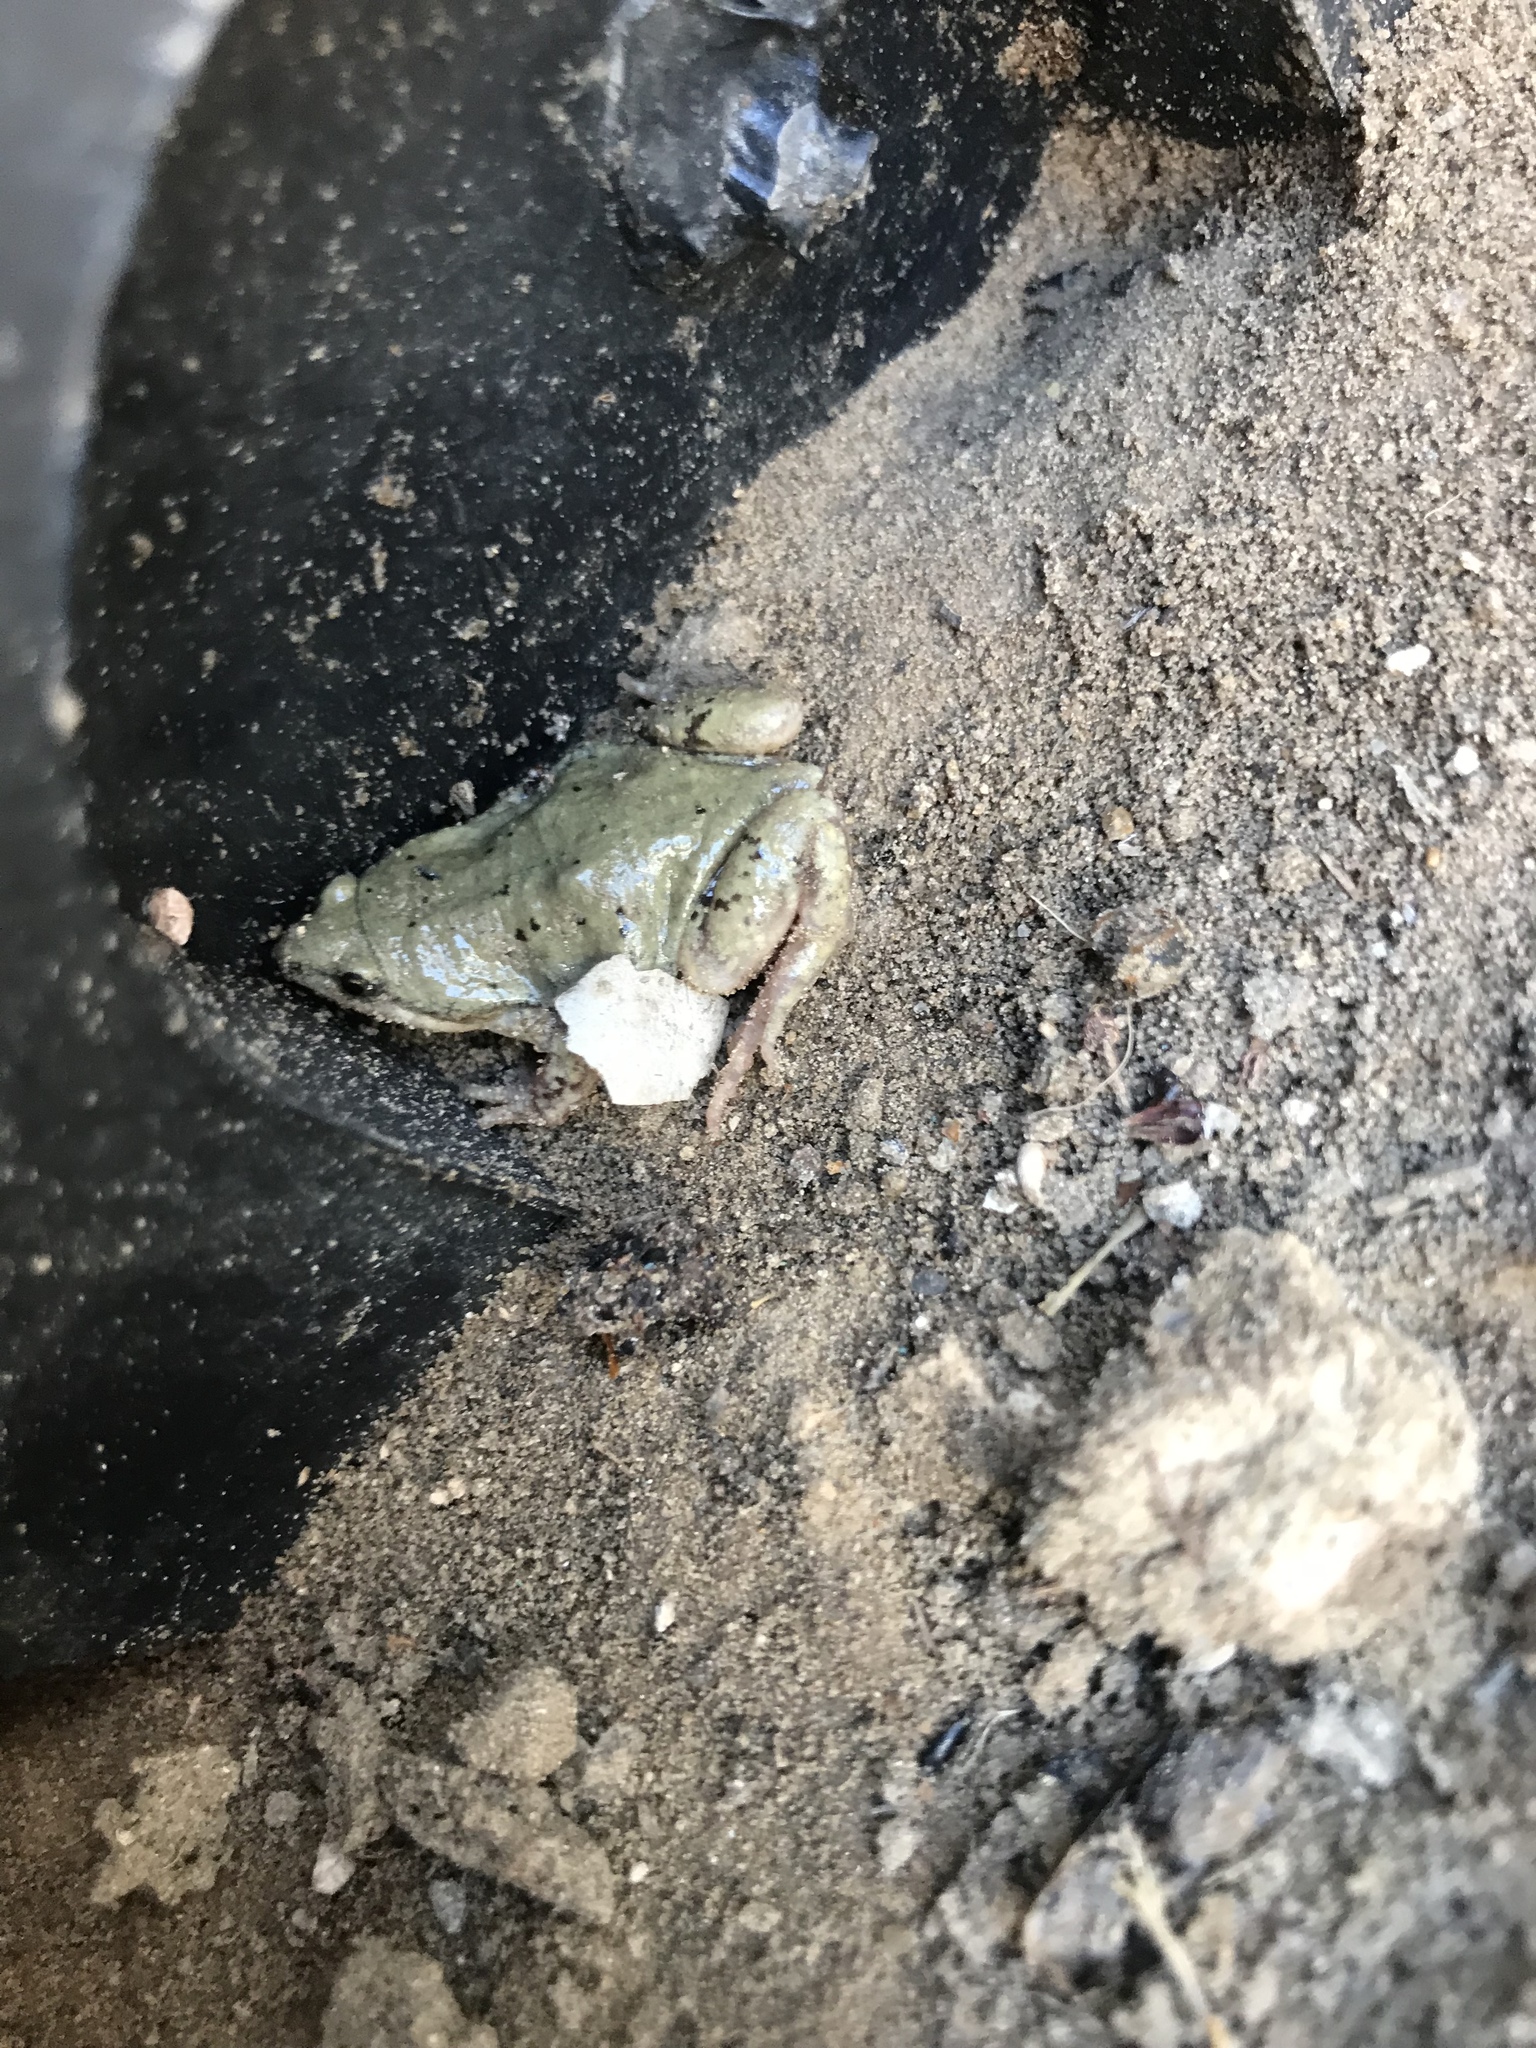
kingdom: Animalia
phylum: Chordata
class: Amphibia
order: Anura
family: Microhylidae
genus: Gastrophryne
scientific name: Gastrophryne olivacea
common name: Great plains narrow-mouthed toad
